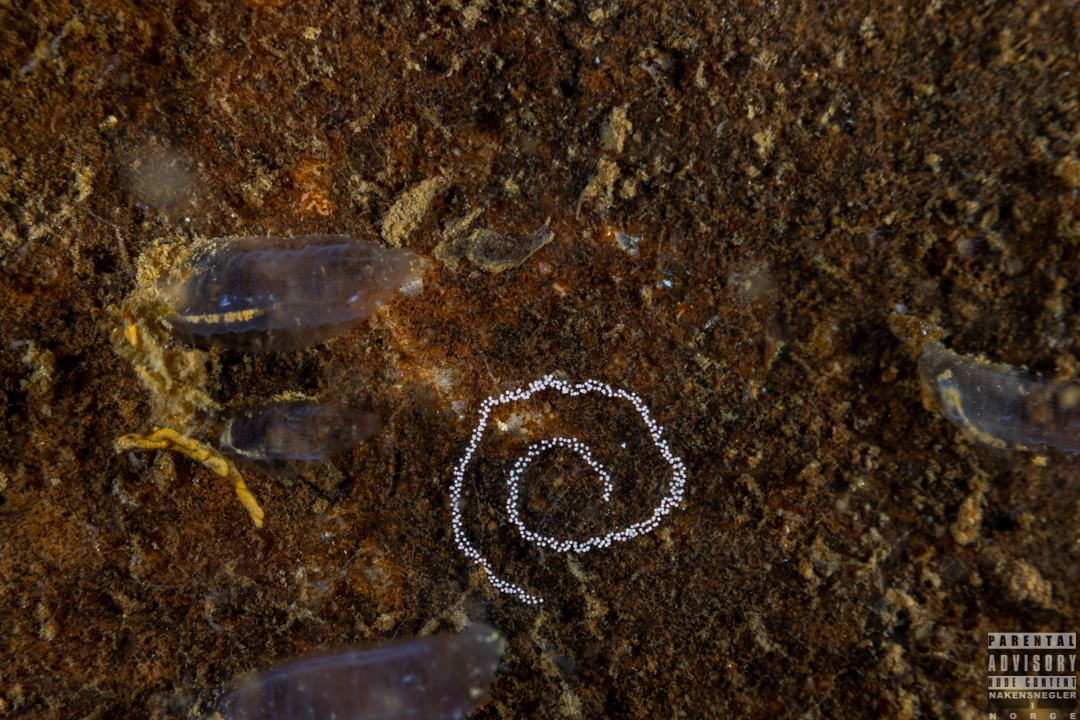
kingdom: Animalia
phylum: Mollusca
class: Gastropoda
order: Nudibranchia
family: Cuthonidae
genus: Bohuslania
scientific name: Bohuslania matsmichaeli
